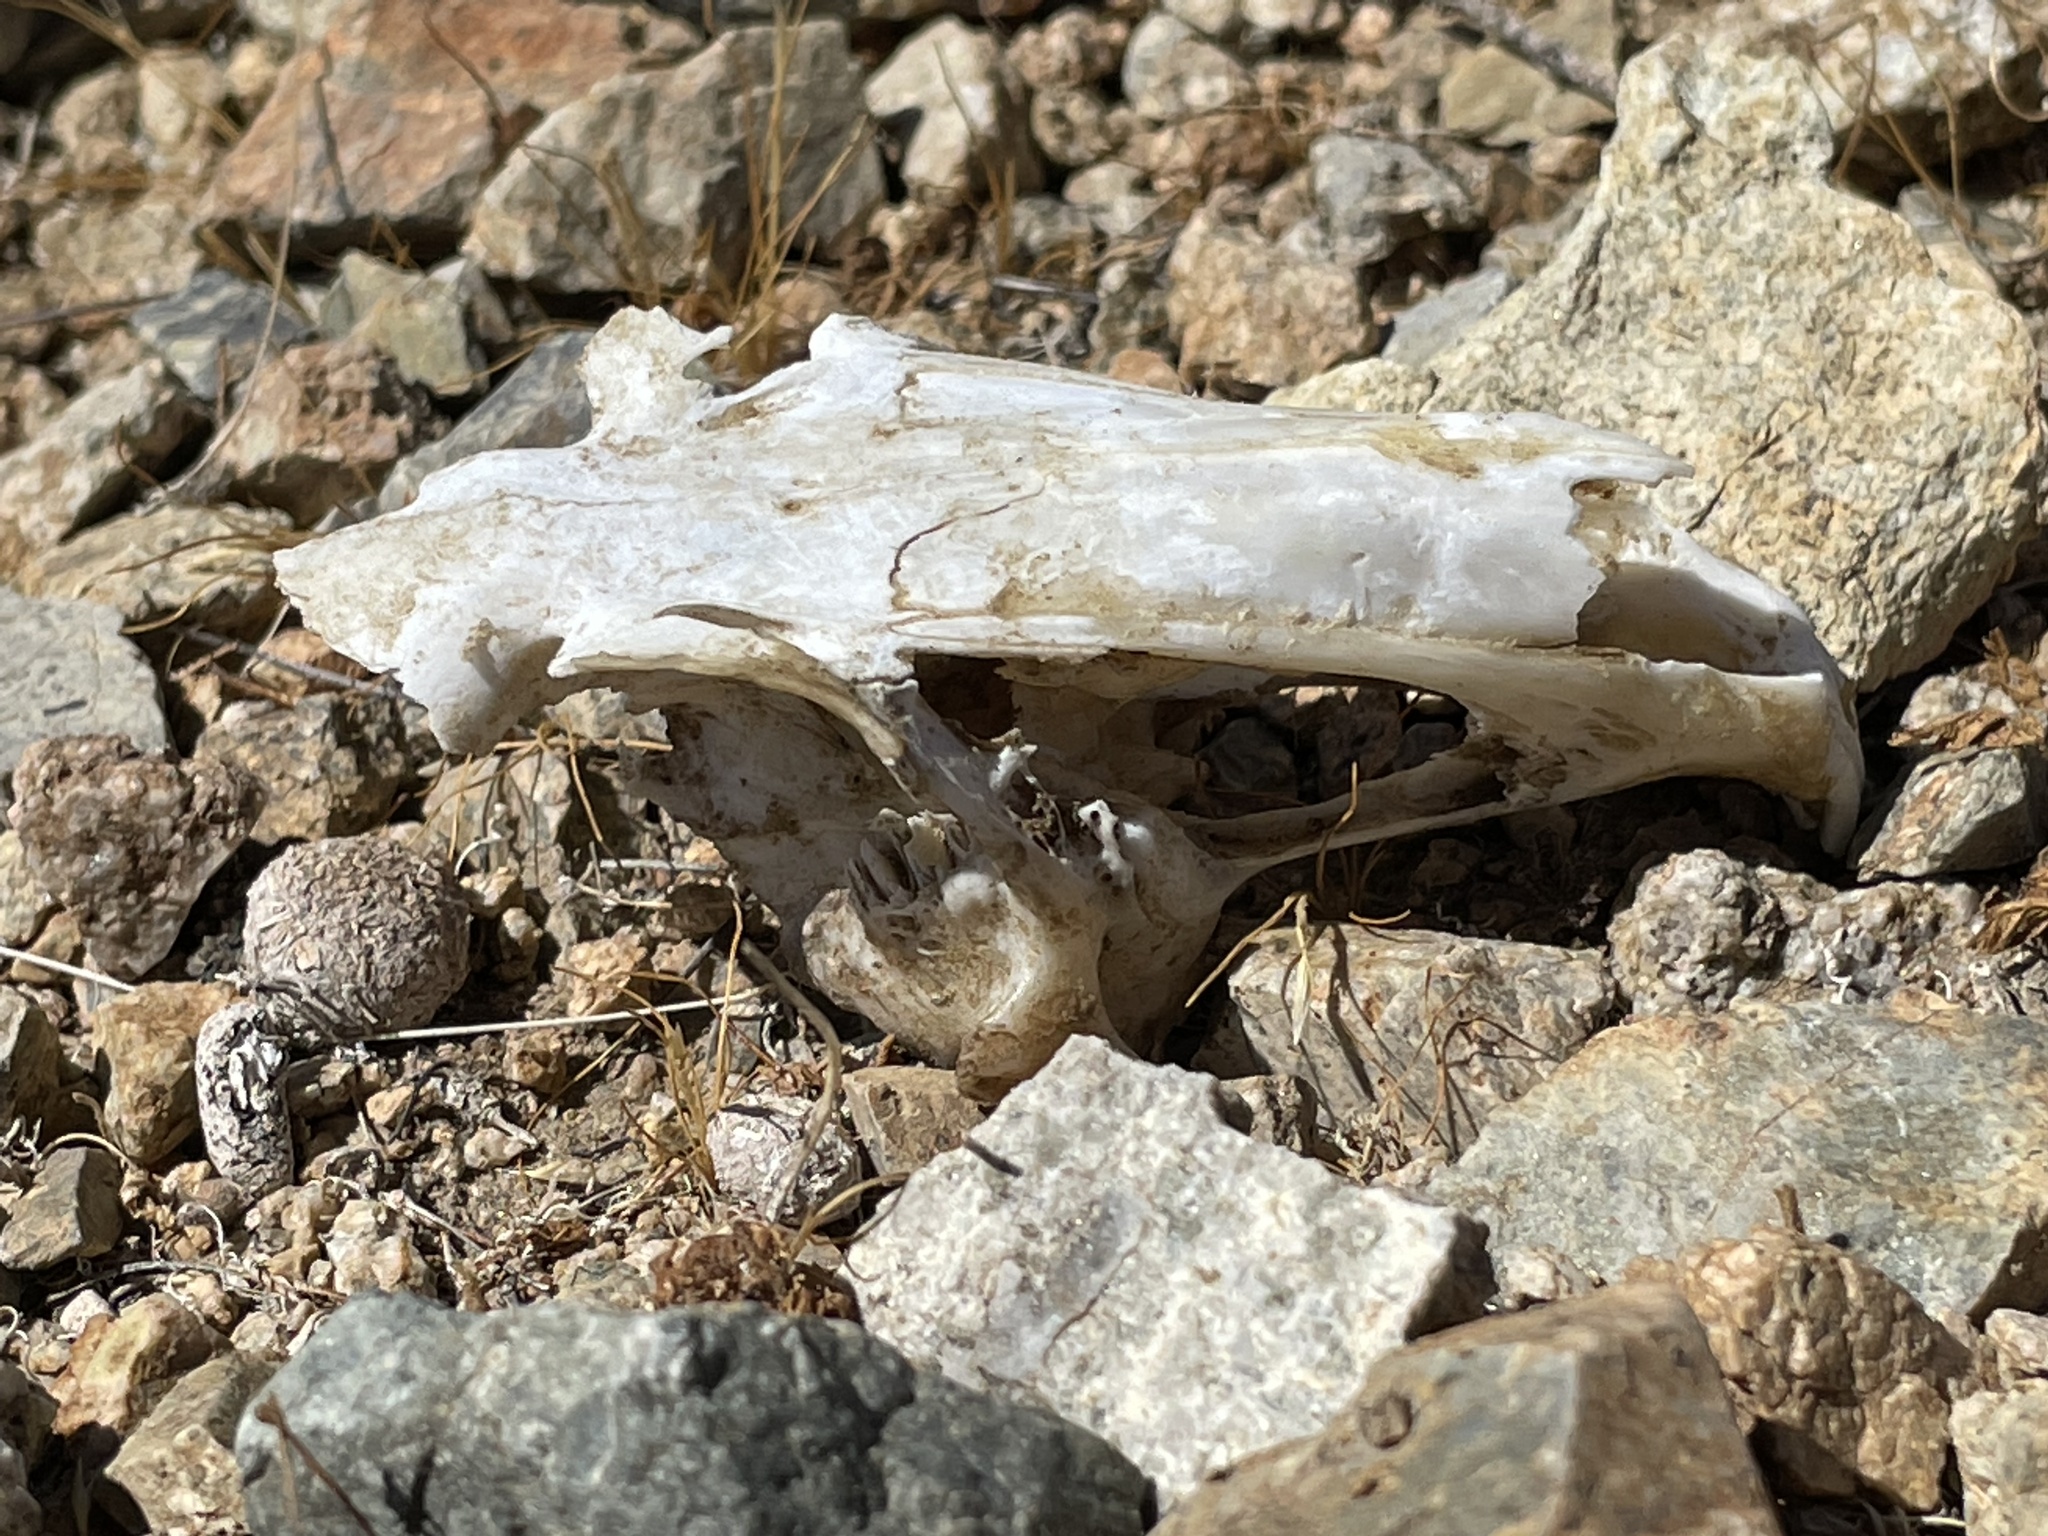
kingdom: Animalia
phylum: Chordata
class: Mammalia
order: Lagomorpha
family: Leporidae
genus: Lepus
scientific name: Lepus californicus
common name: Black-tailed jackrabbit
